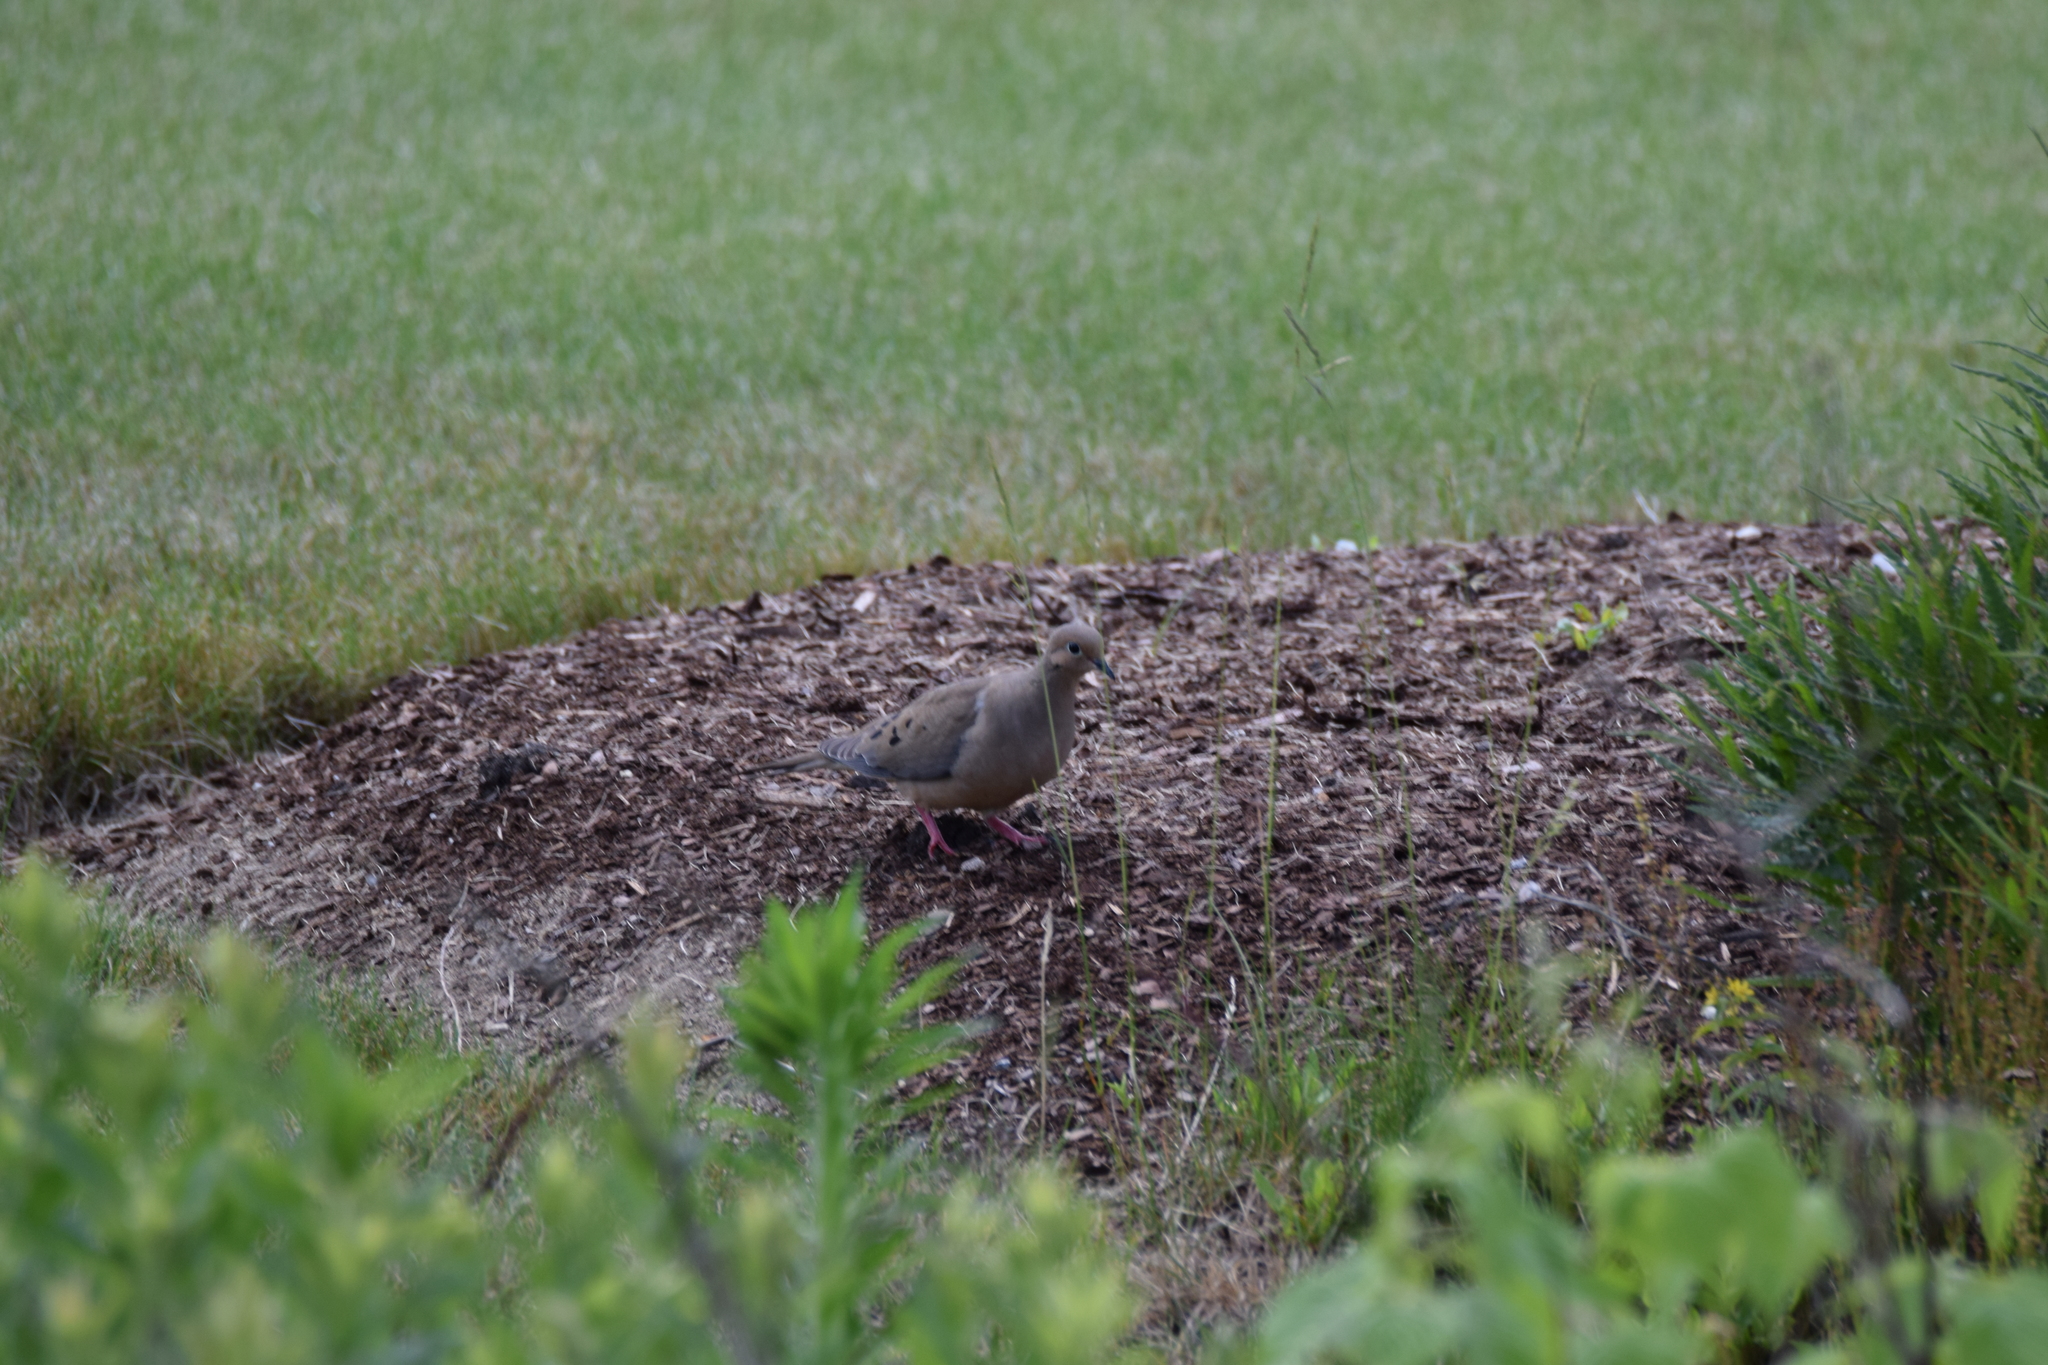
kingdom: Animalia
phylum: Chordata
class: Aves
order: Columbiformes
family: Columbidae
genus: Zenaida
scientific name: Zenaida macroura
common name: Mourning dove
